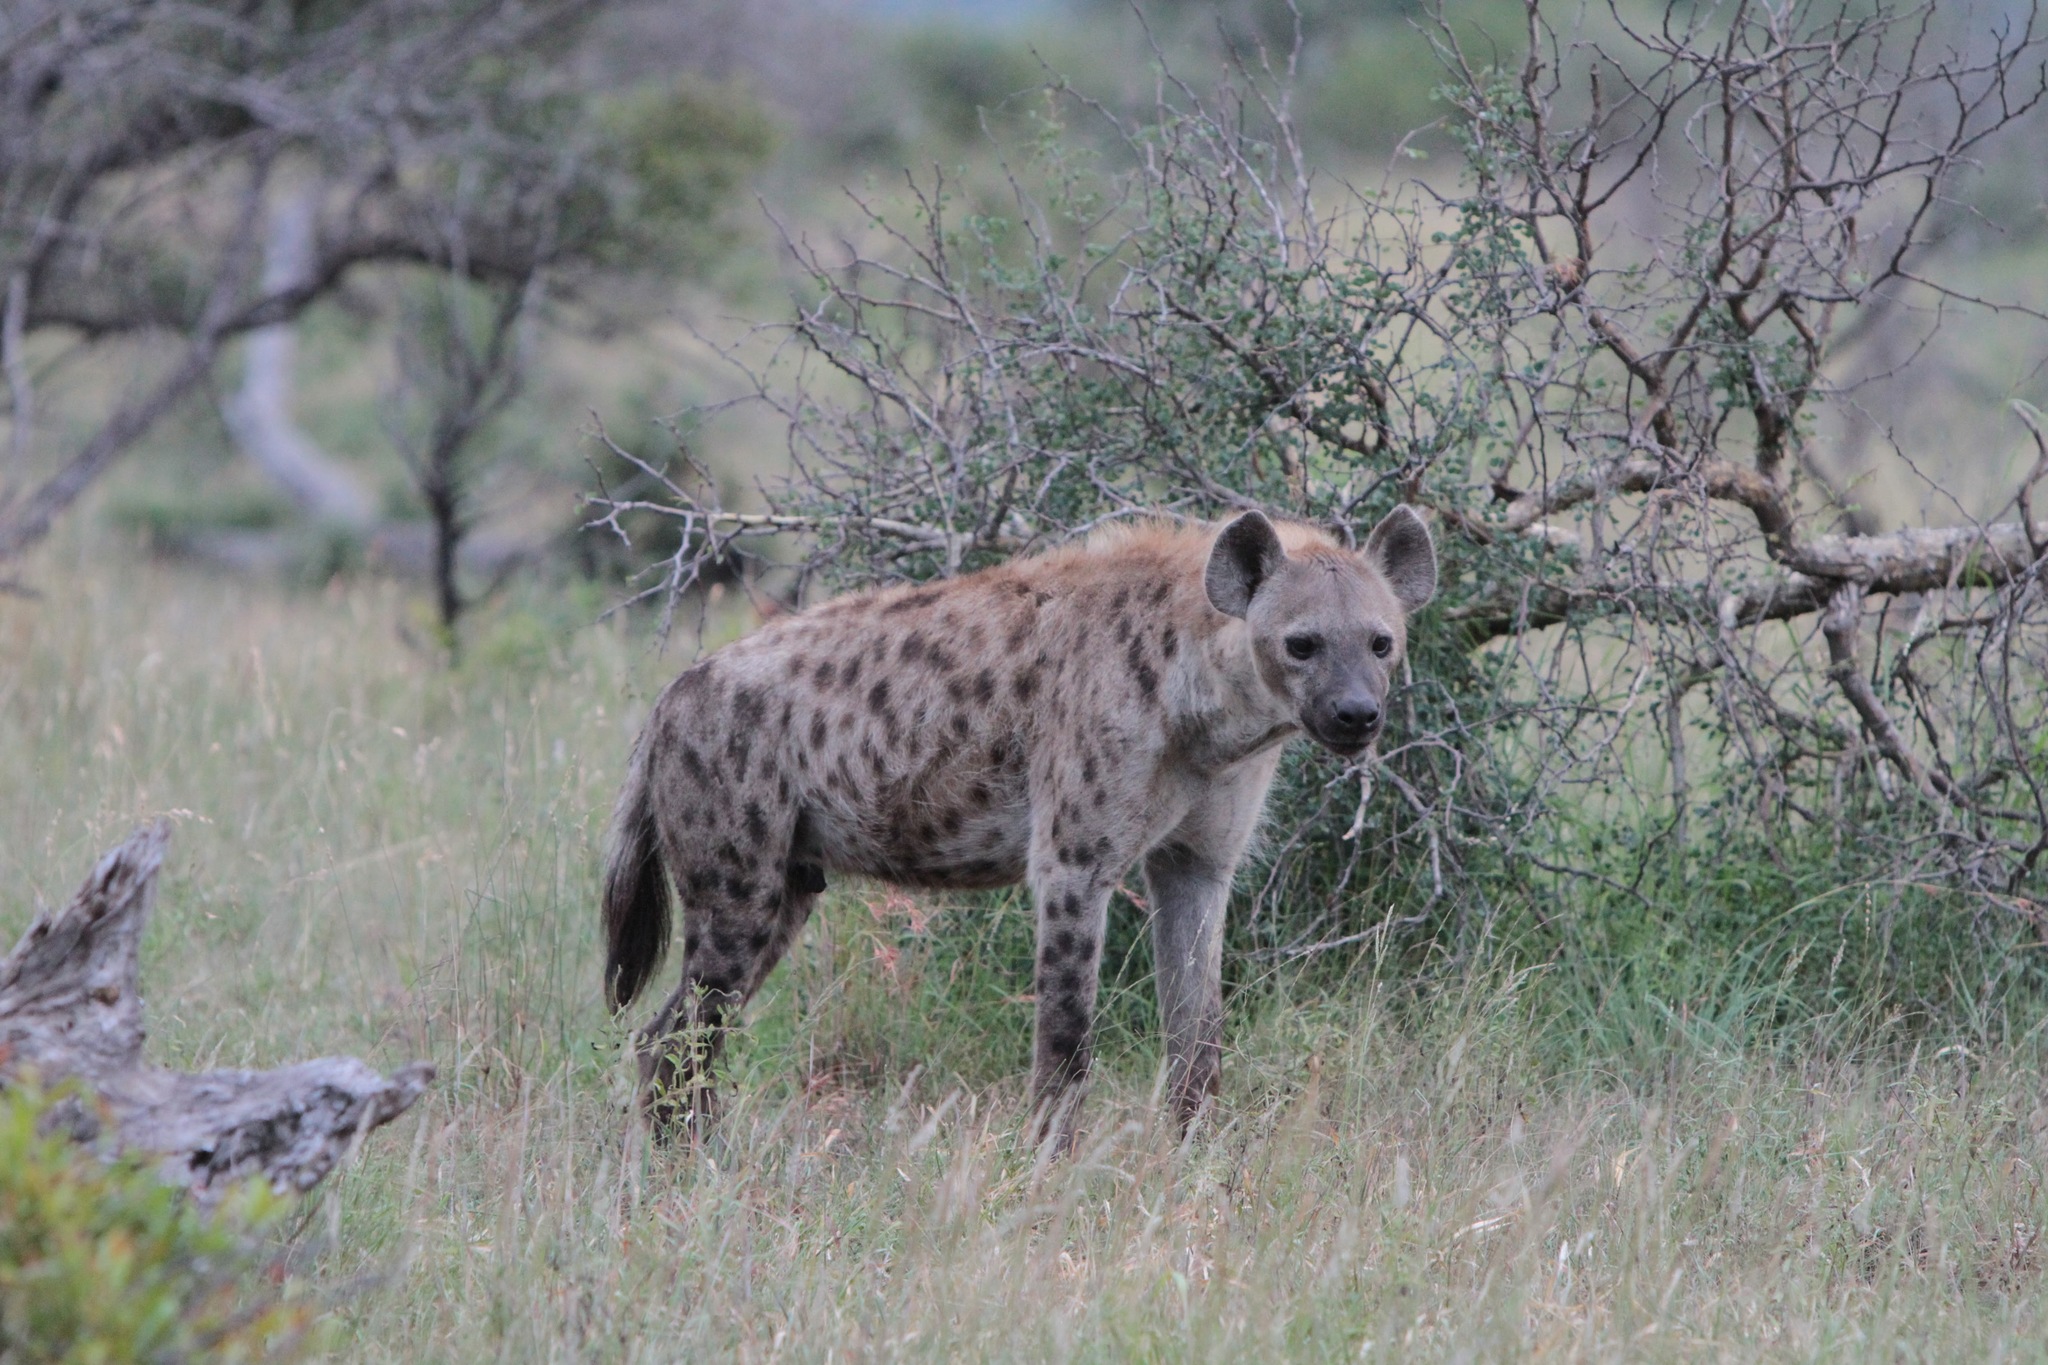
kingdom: Animalia
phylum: Chordata
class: Mammalia
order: Carnivora
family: Hyaenidae
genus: Crocuta
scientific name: Crocuta crocuta
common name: Spotted hyaena
